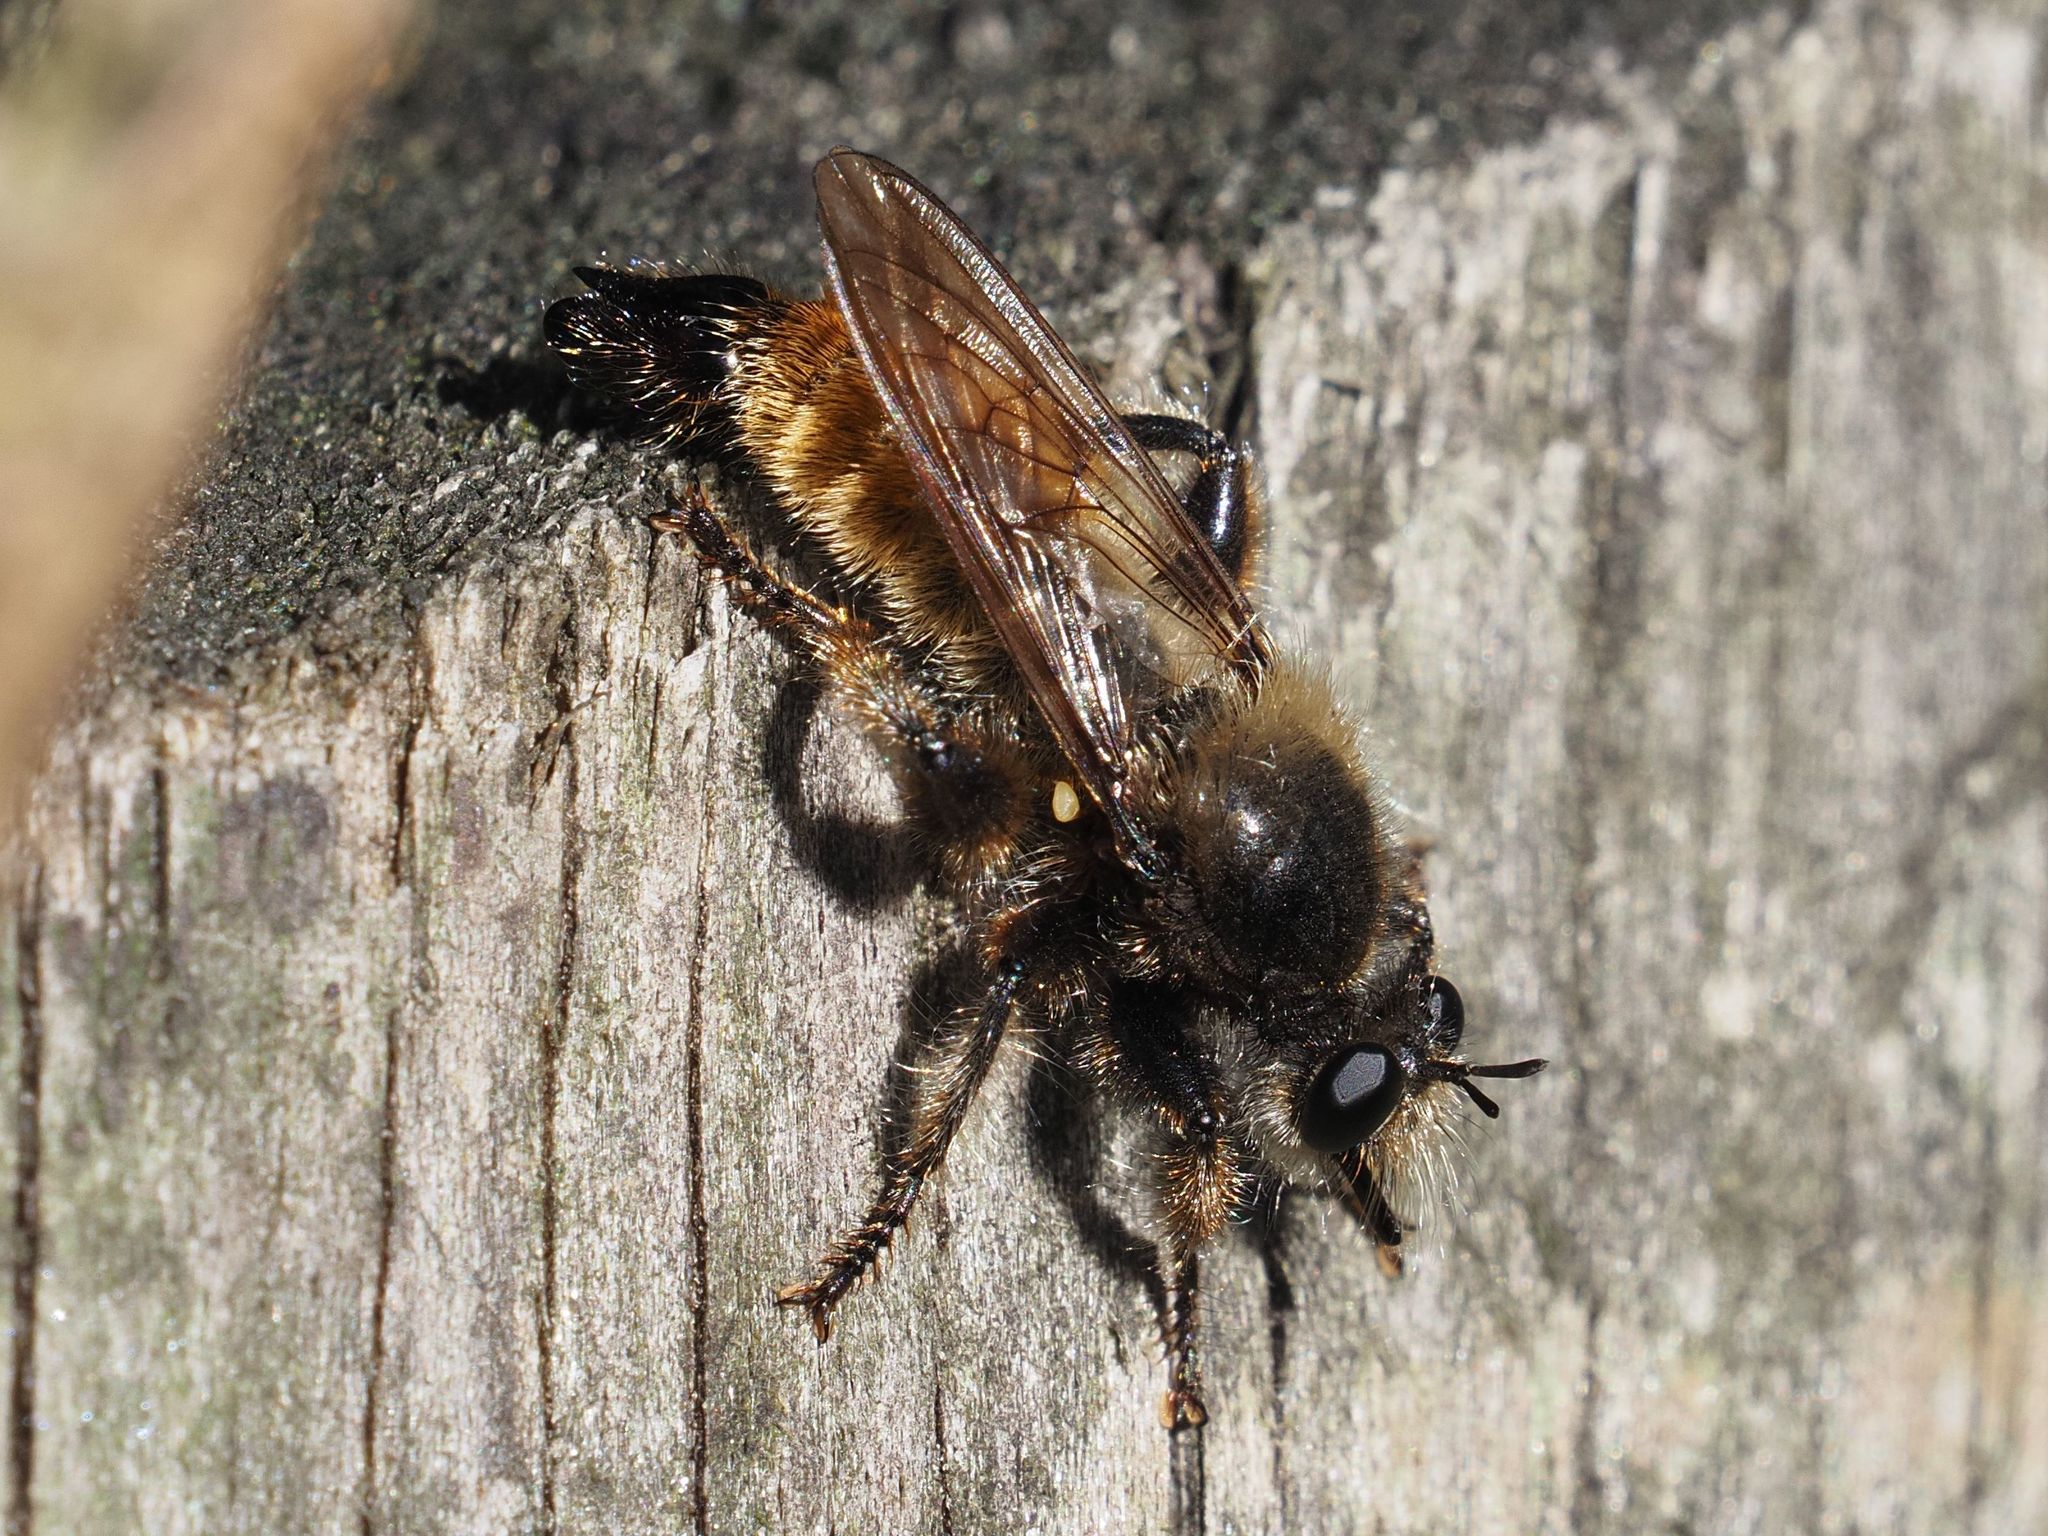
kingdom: Animalia
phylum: Arthropoda
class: Insecta
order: Diptera
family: Asilidae
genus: Laphria
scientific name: Laphria flava
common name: Bumblebee robberfly
